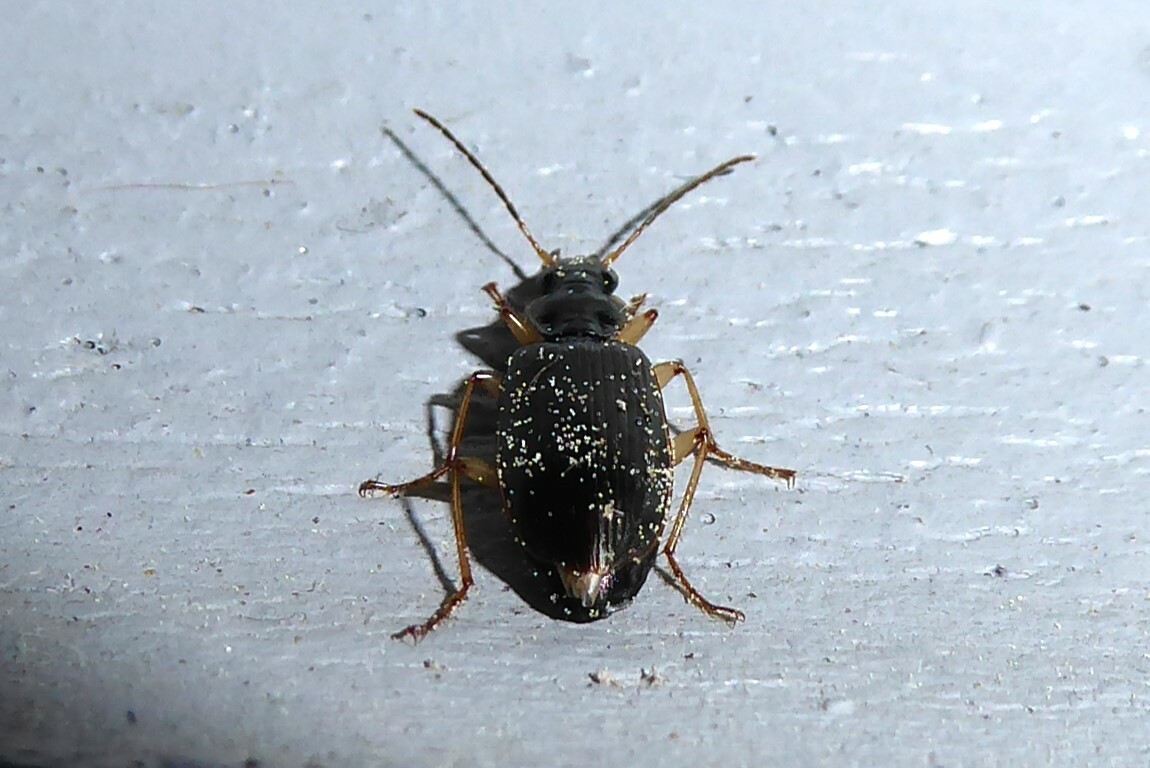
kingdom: Animalia
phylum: Arthropoda
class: Insecta
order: Coleoptera
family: Carabidae
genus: Notagonum
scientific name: Notagonum submetallicum
